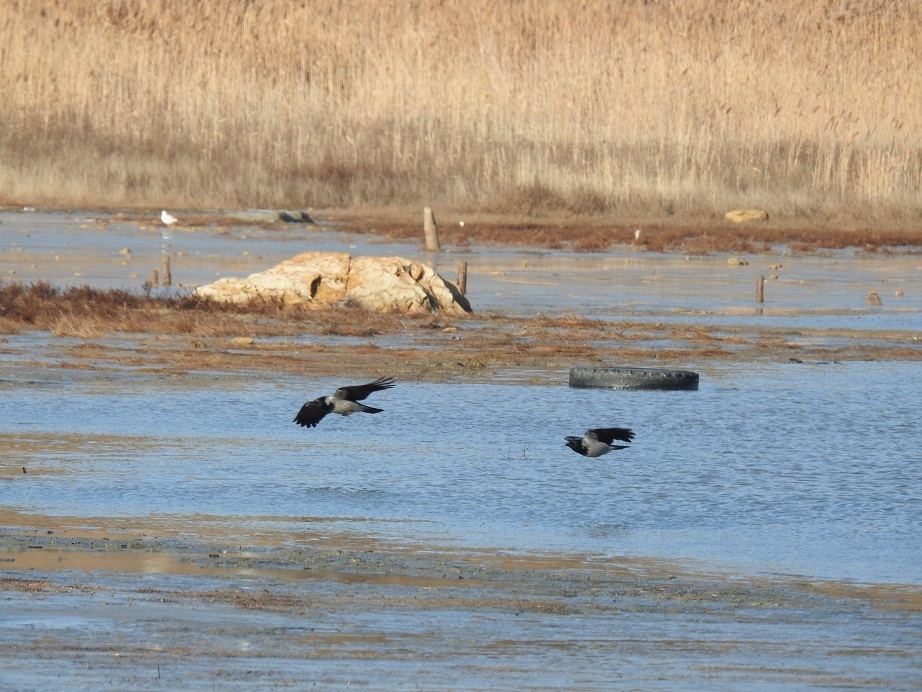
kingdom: Animalia
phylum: Chordata
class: Aves
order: Passeriformes
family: Corvidae
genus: Corvus
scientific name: Corvus cornix
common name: Hooded crow
